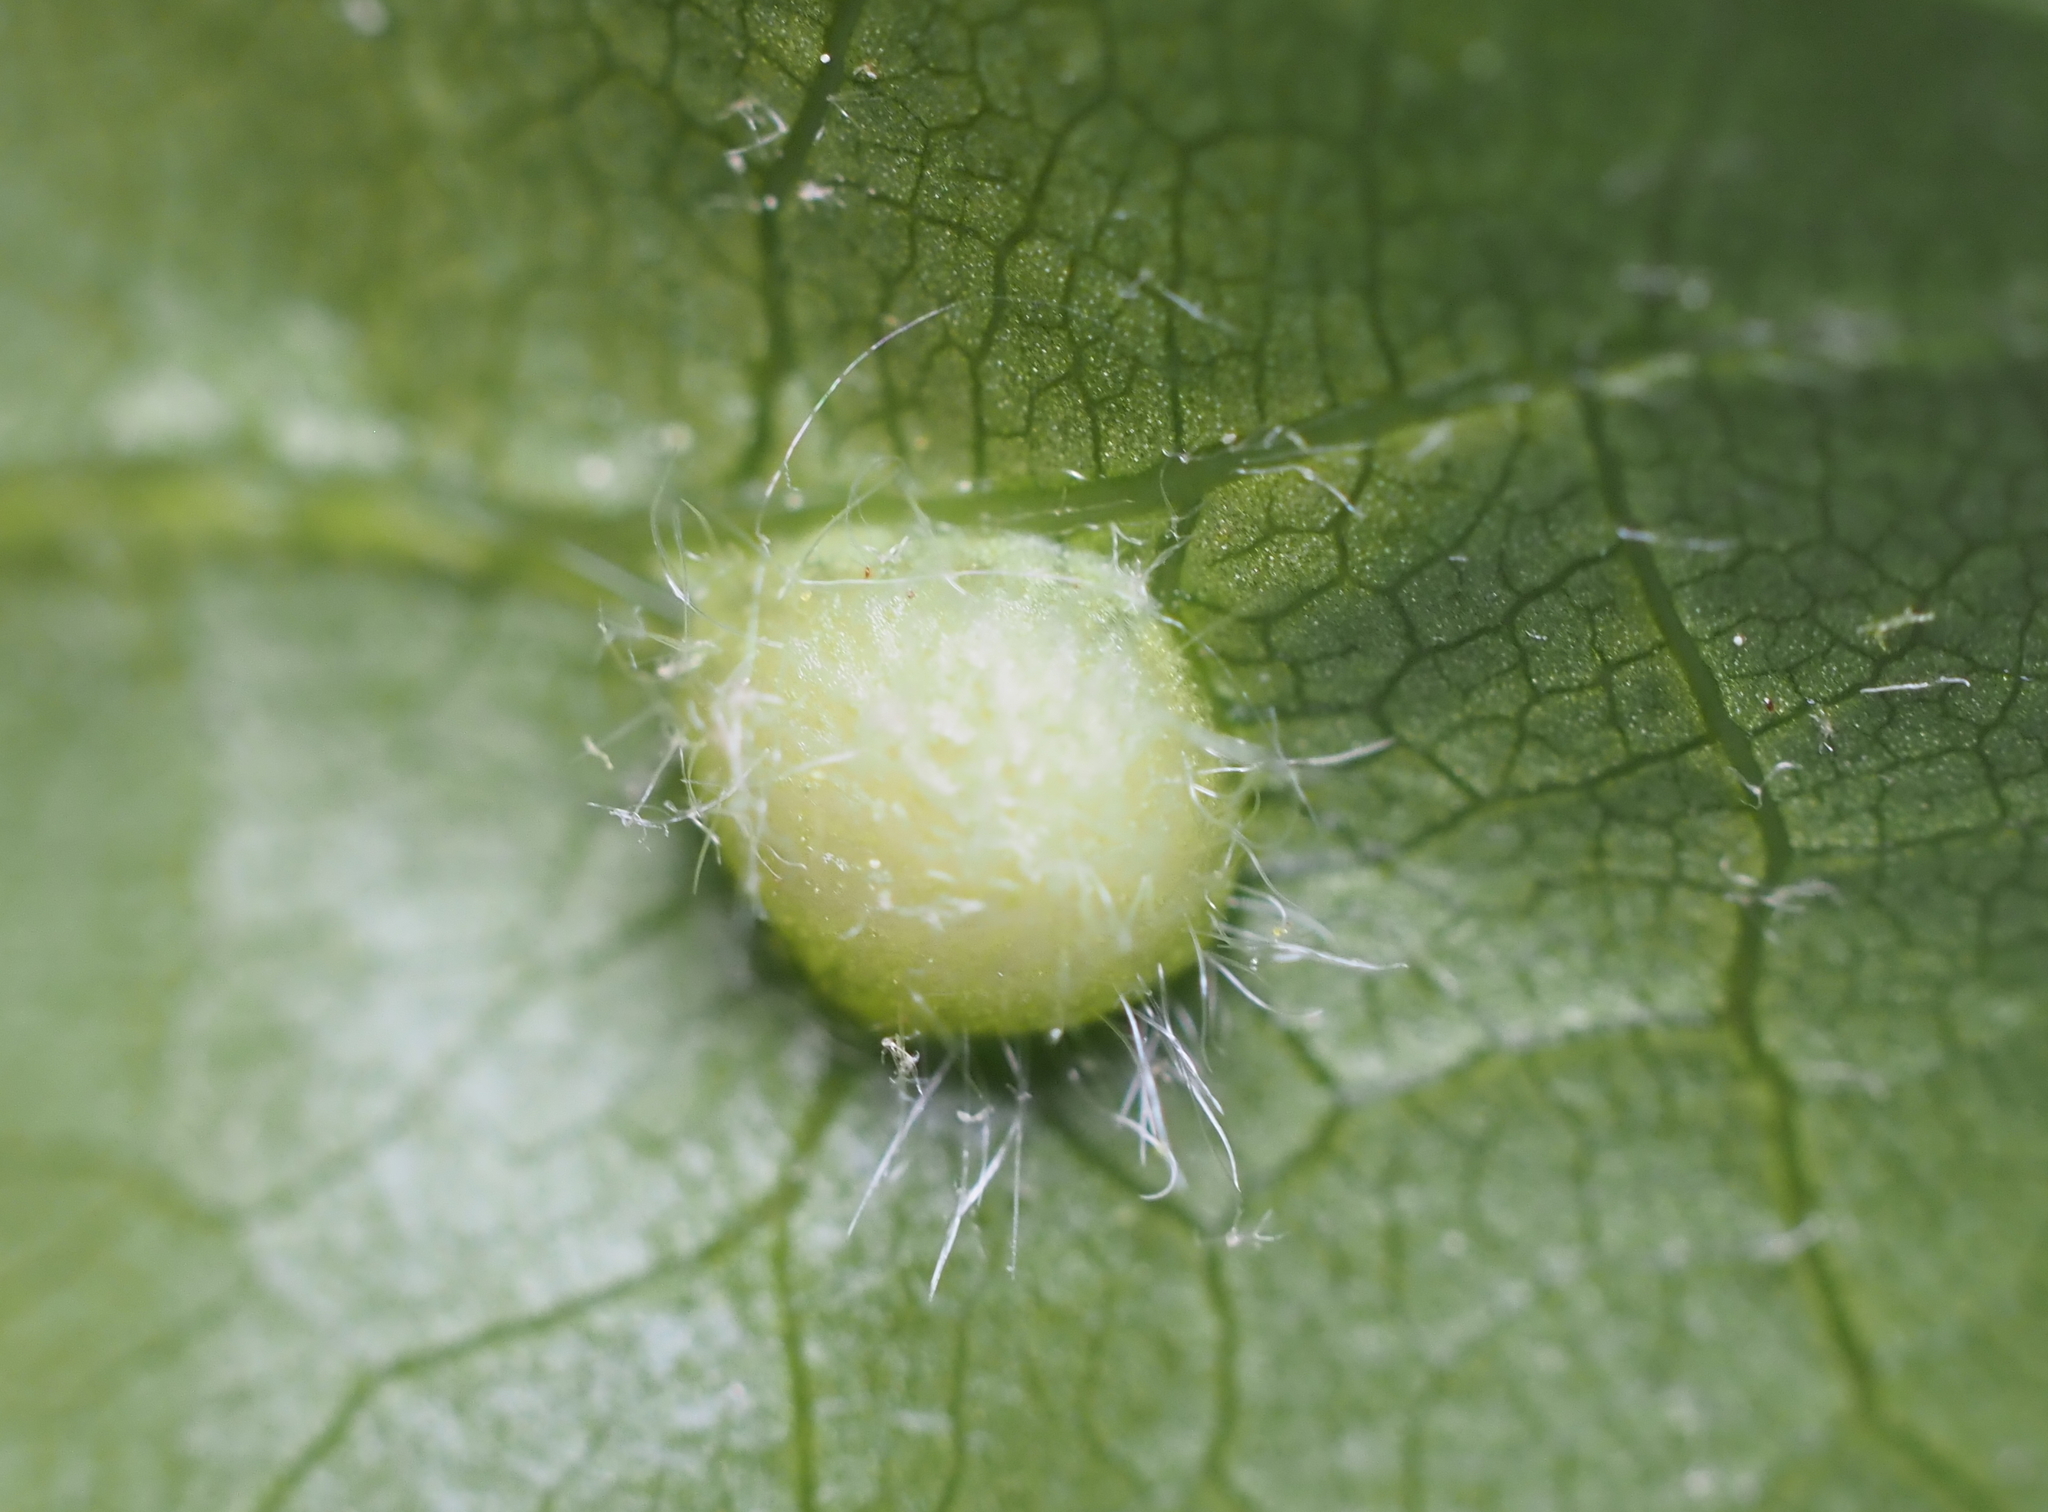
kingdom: Animalia
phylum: Arthropoda
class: Insecta
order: Hymenoptera
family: Cynipidae
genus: Dryocosmus
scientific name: Dryocosmus
